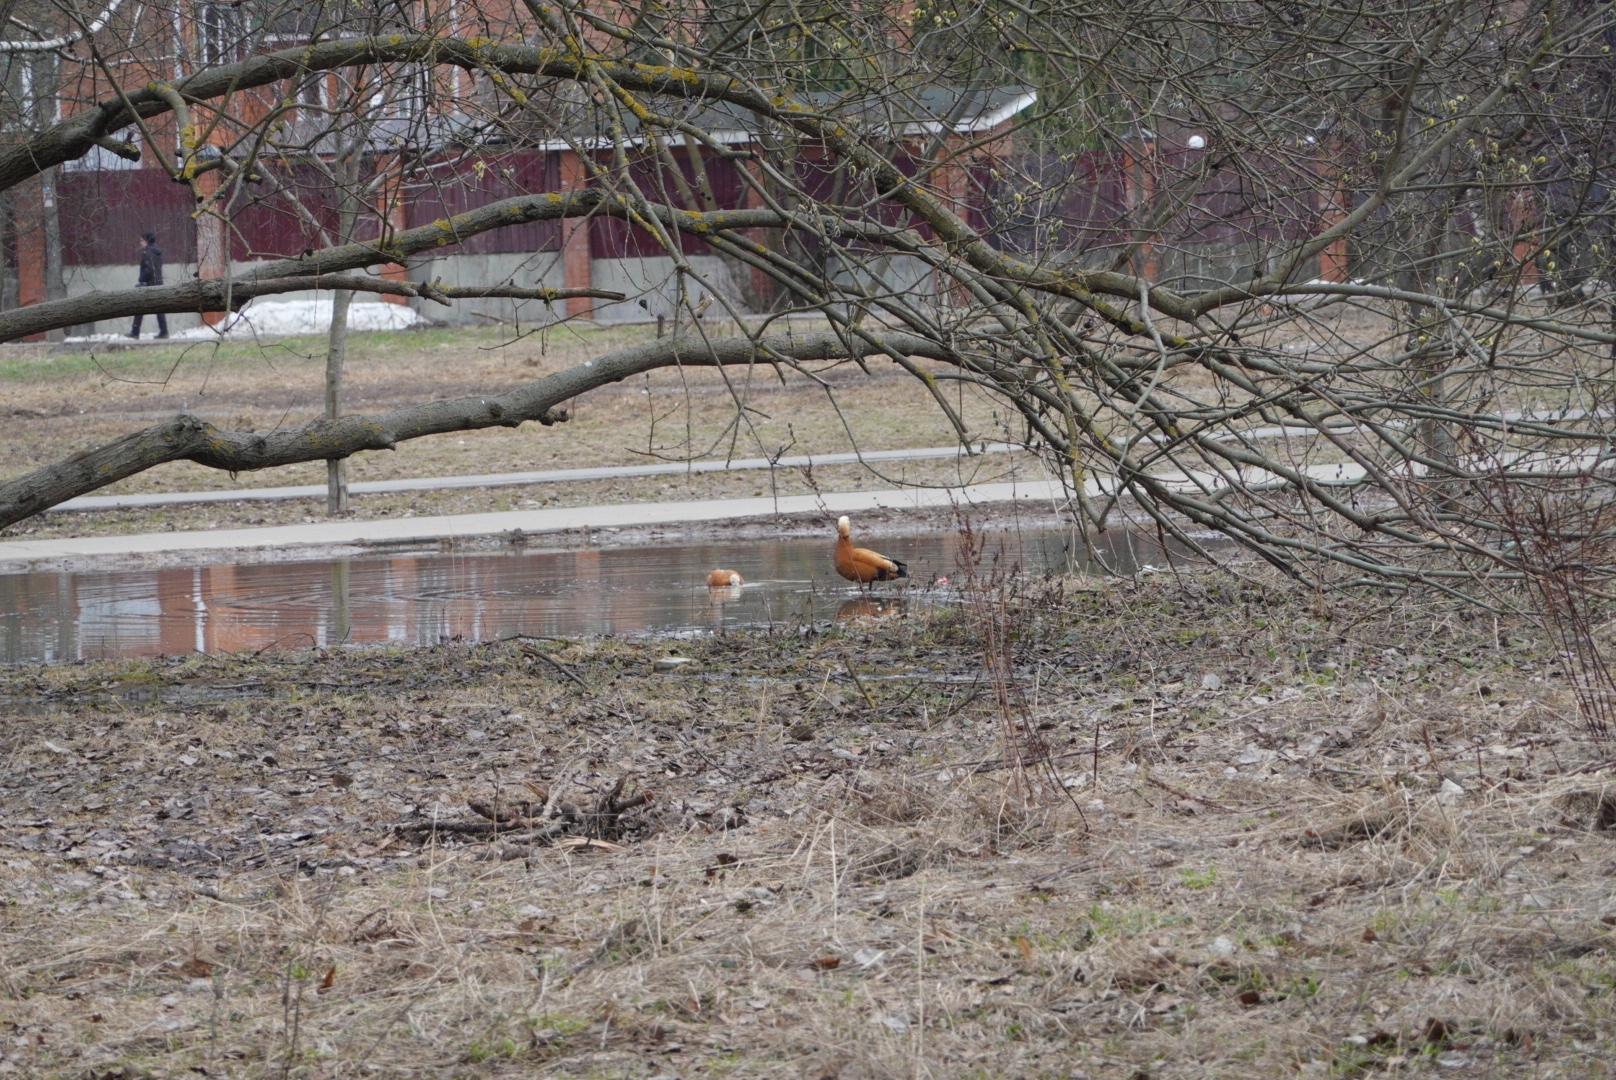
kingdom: Animalia
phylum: Chordata
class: Aves
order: Anseriformes
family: Anatidae
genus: Tadorna
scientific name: Tadorna ferruginea
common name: Ruddy shelduck
